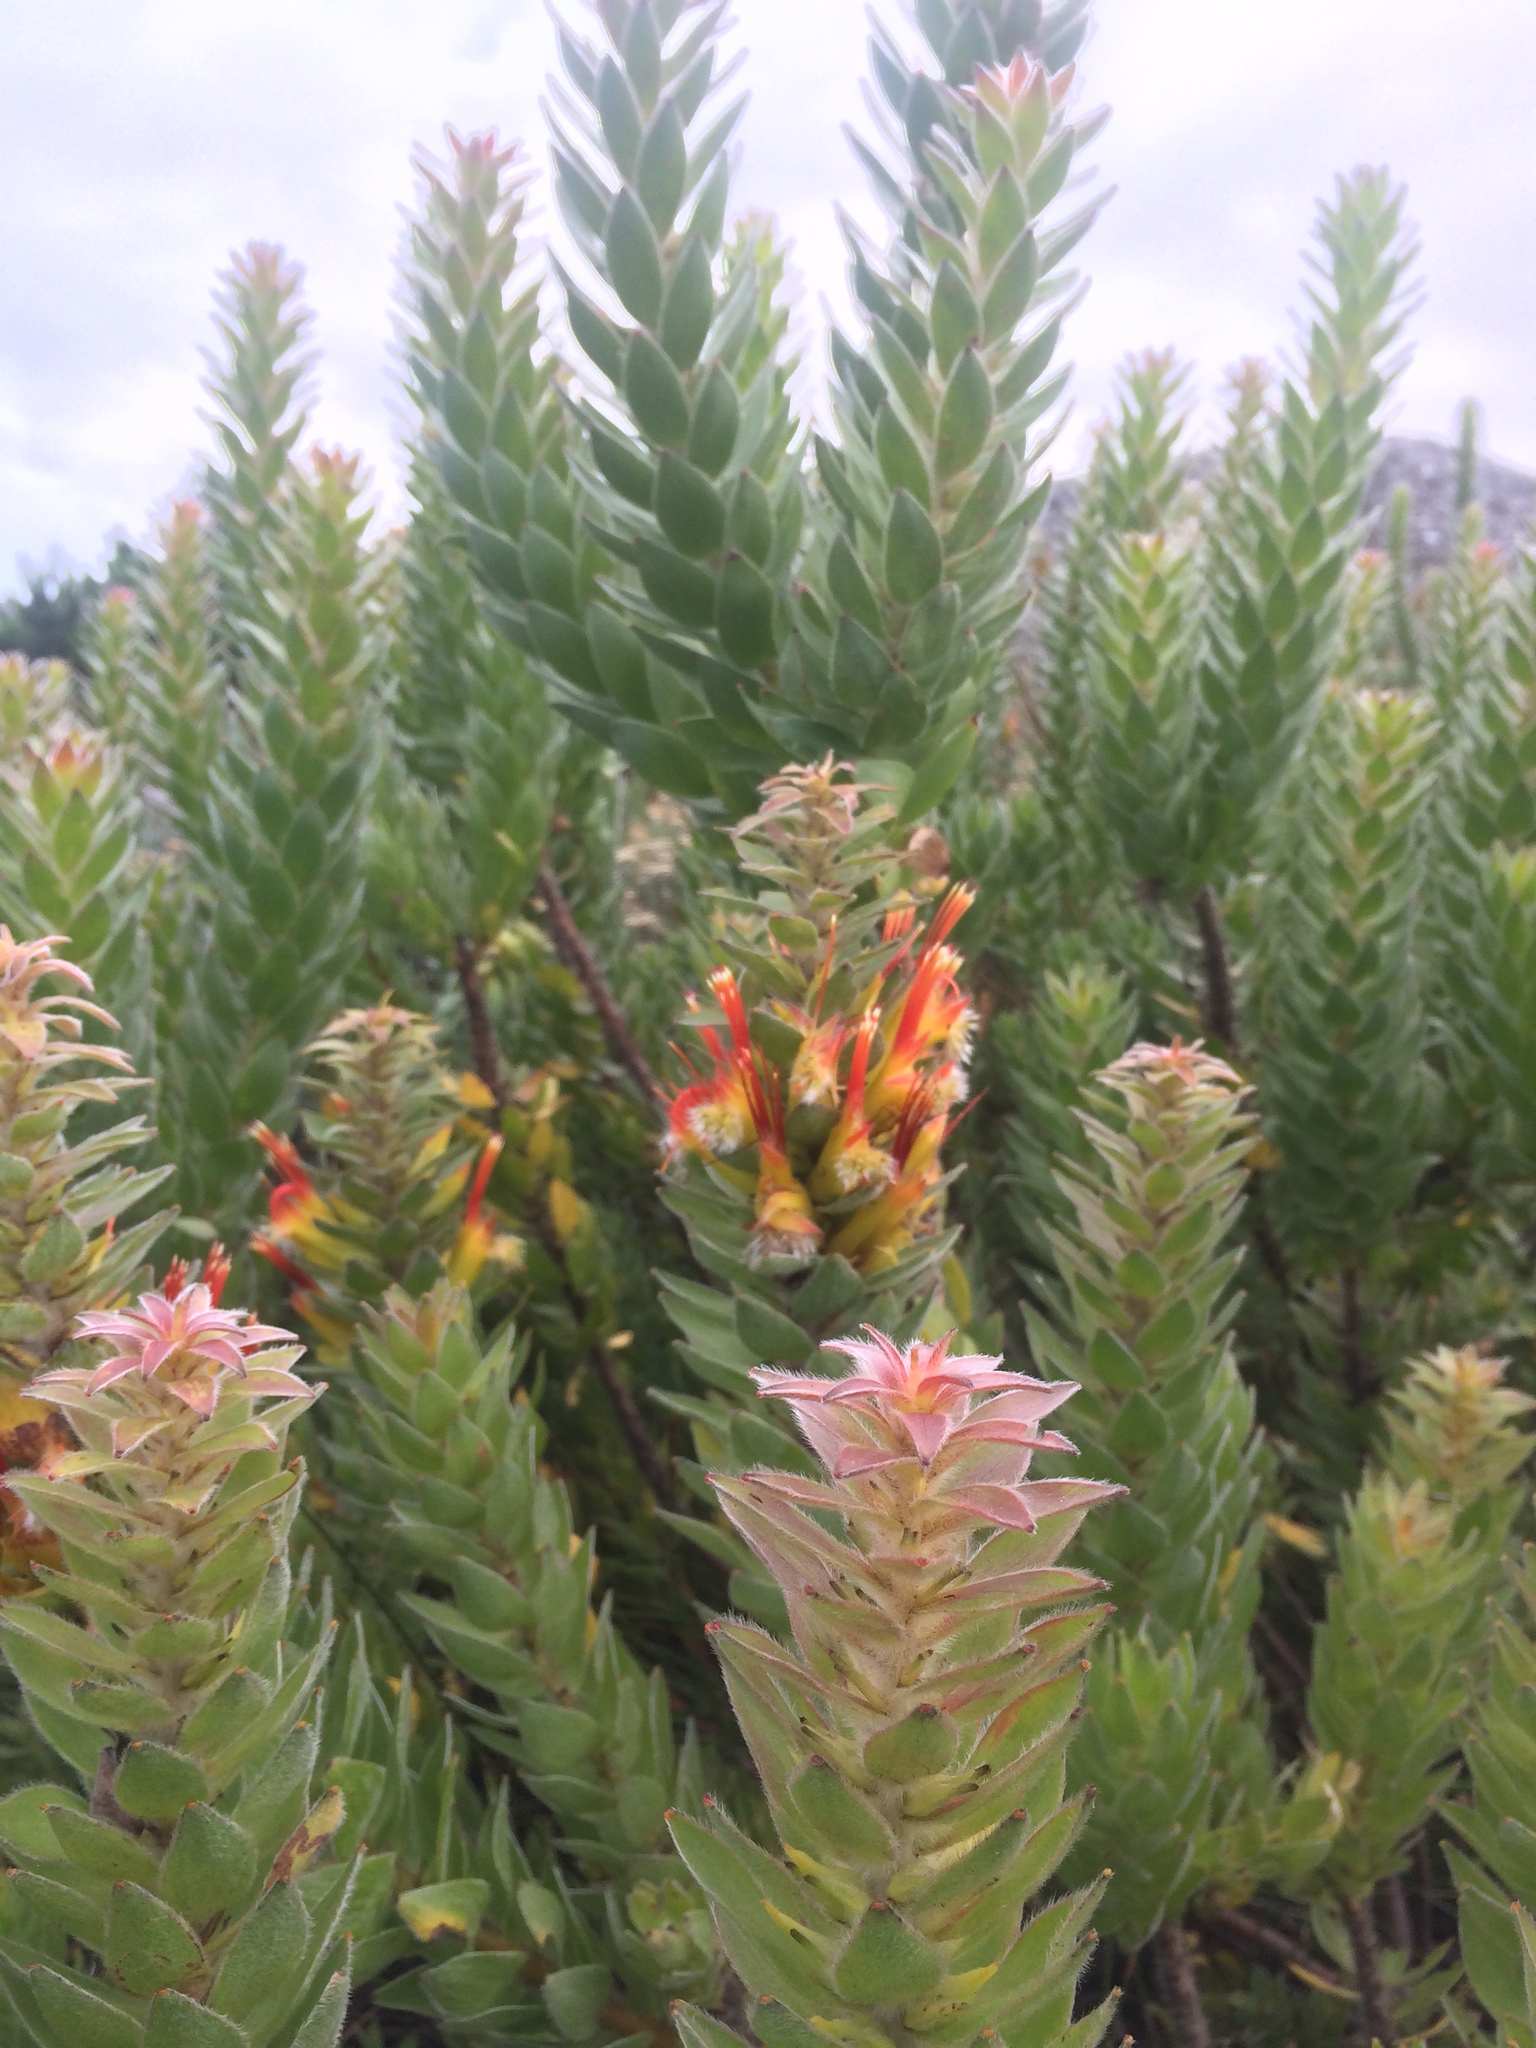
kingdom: Plantae
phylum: Tracheophyta
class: Magnoliopsida
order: Proteales
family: Proteaceae
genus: Mimetes
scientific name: Mimetes hirtus
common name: Marsh pagoda
